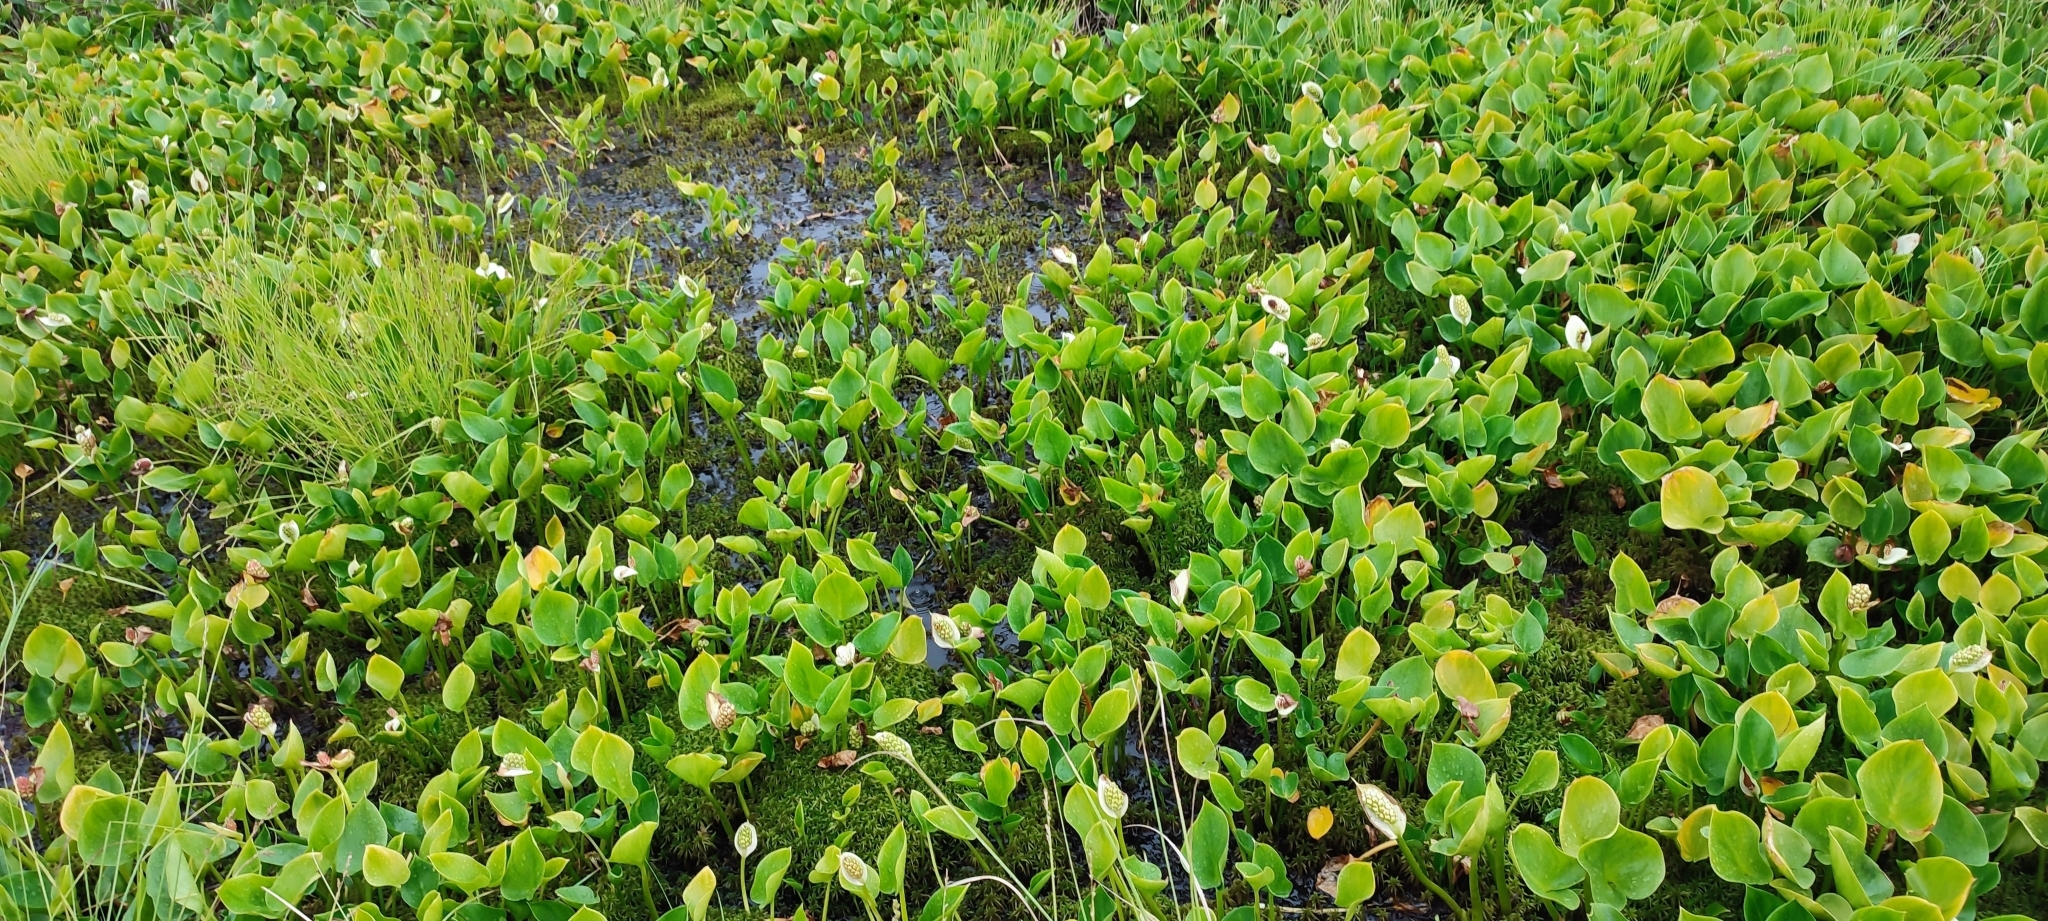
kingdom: Plantae
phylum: Tracheophyta
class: Liliopsida
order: Alismatales
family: Araceae
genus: Calla
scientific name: Calla palustris
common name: Bog arum
